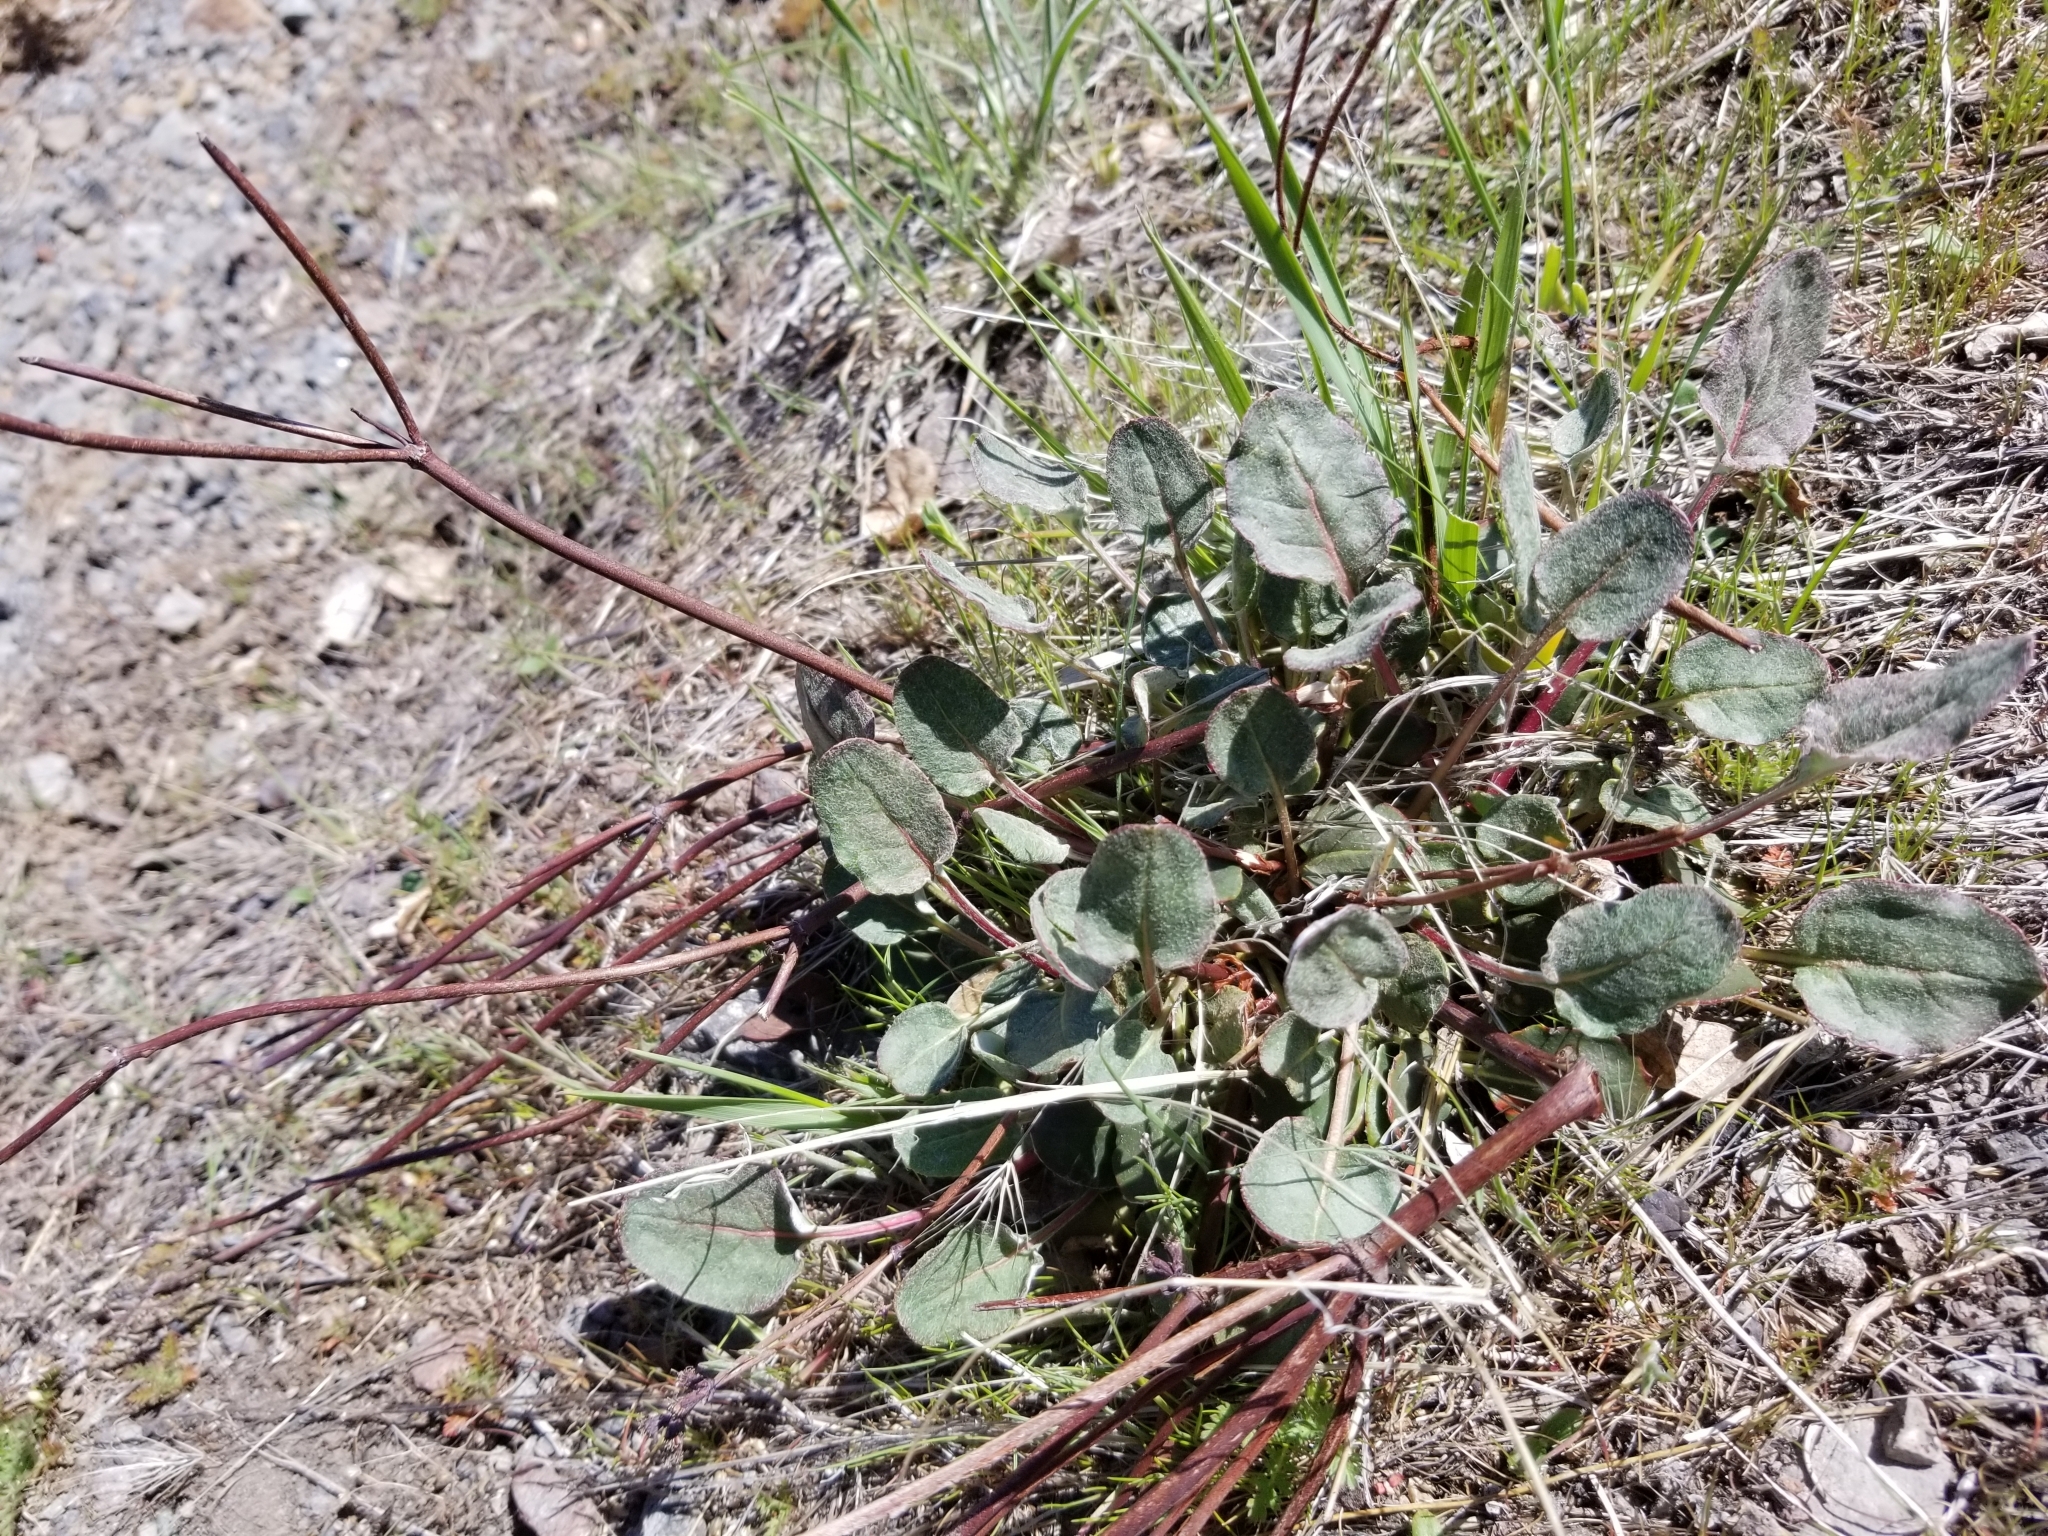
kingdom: Plantae
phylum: Tracheophyta
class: Magnoliopsida
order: Caryophyllales
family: Polygonaceae
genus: Eriogonum
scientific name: Eriogonum nudum
